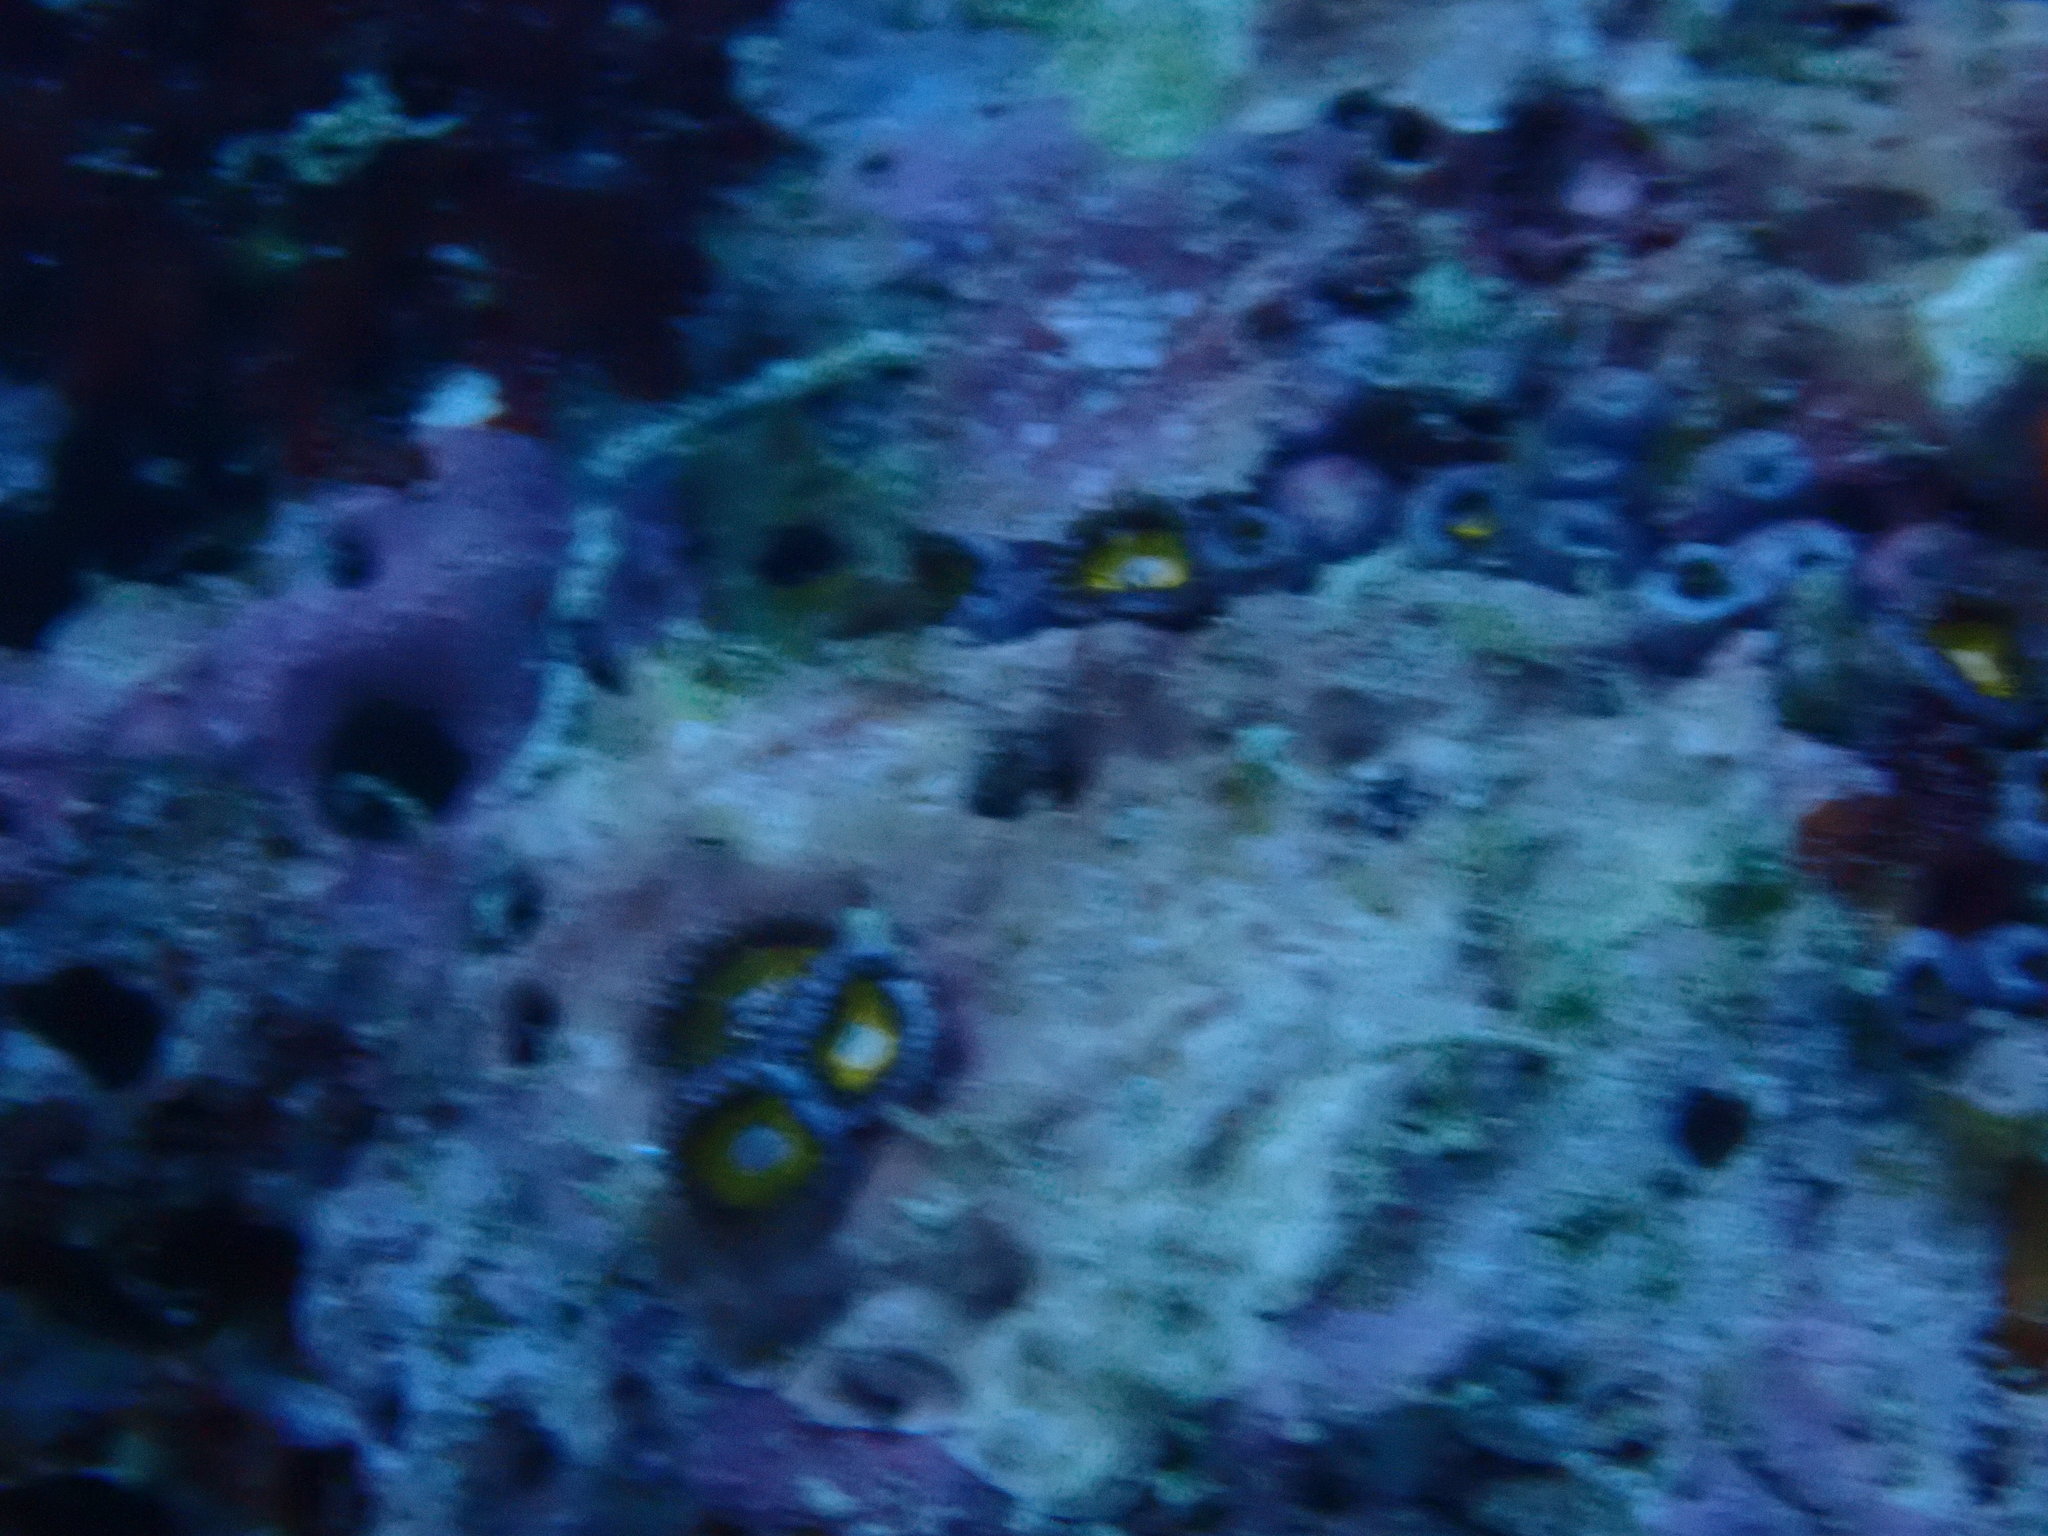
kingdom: Animalia
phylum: Cnidaria
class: Anthozoa
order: Zoantharia
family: Zoanthidae
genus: Zoanthus
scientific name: Zoanthus sansibaricus
